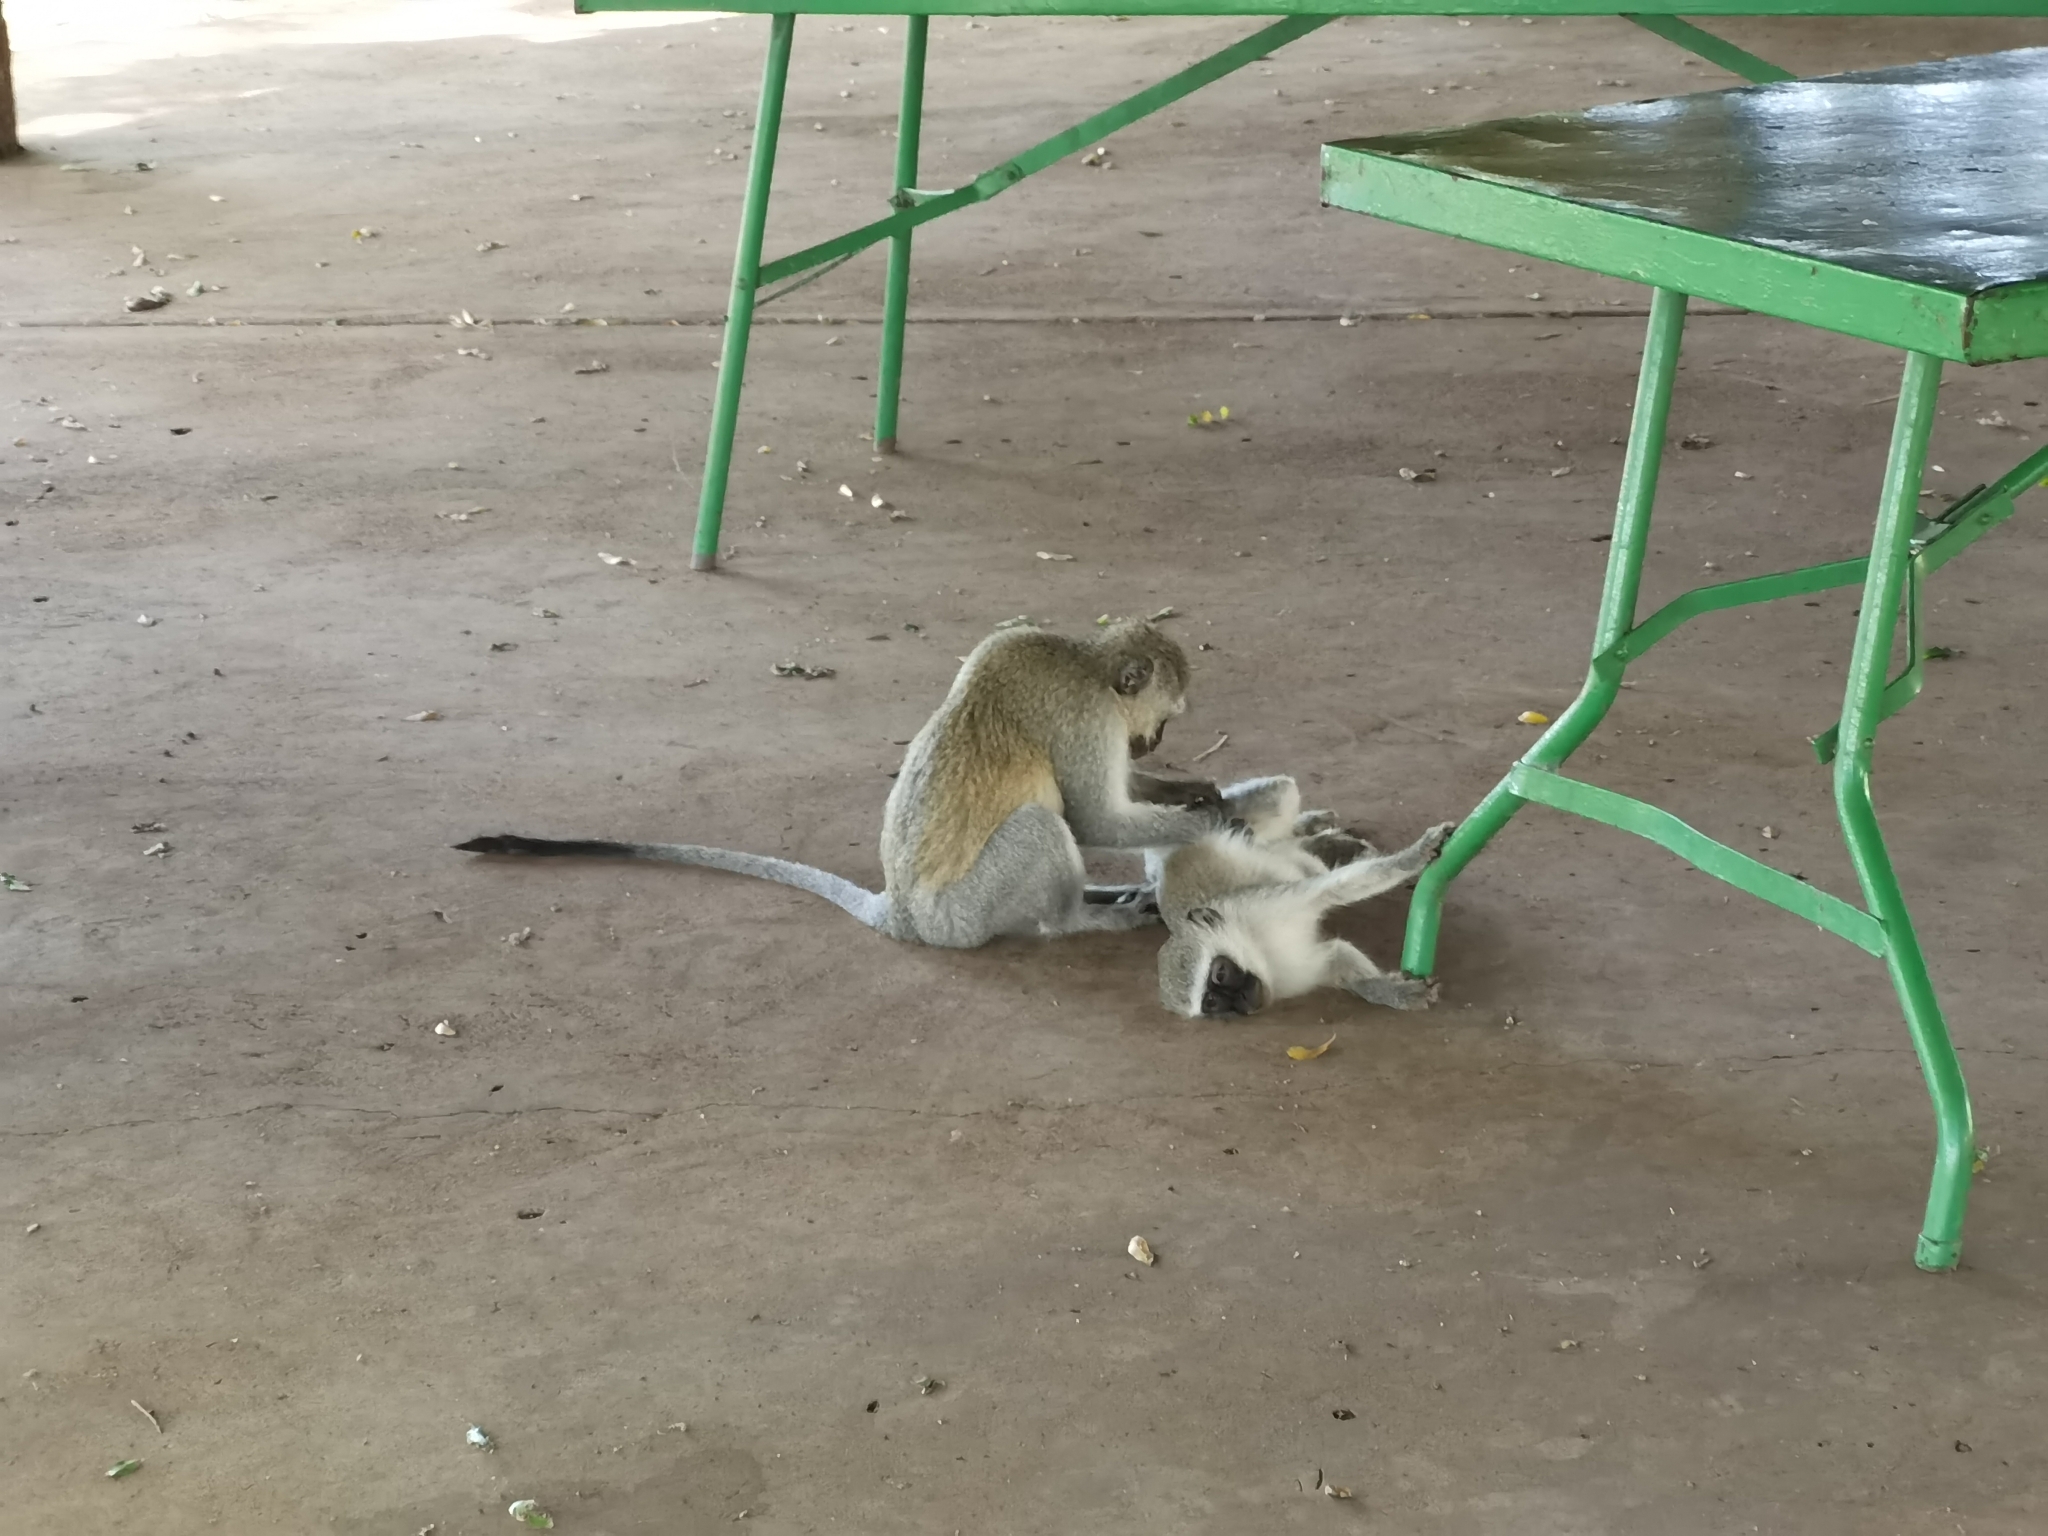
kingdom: Animalia
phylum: Chordata
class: Mammalia
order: Primates
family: Cercopithecidae
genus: Chlorocebus
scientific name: Chlorocebus pygerythrus
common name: Vervet monkey
